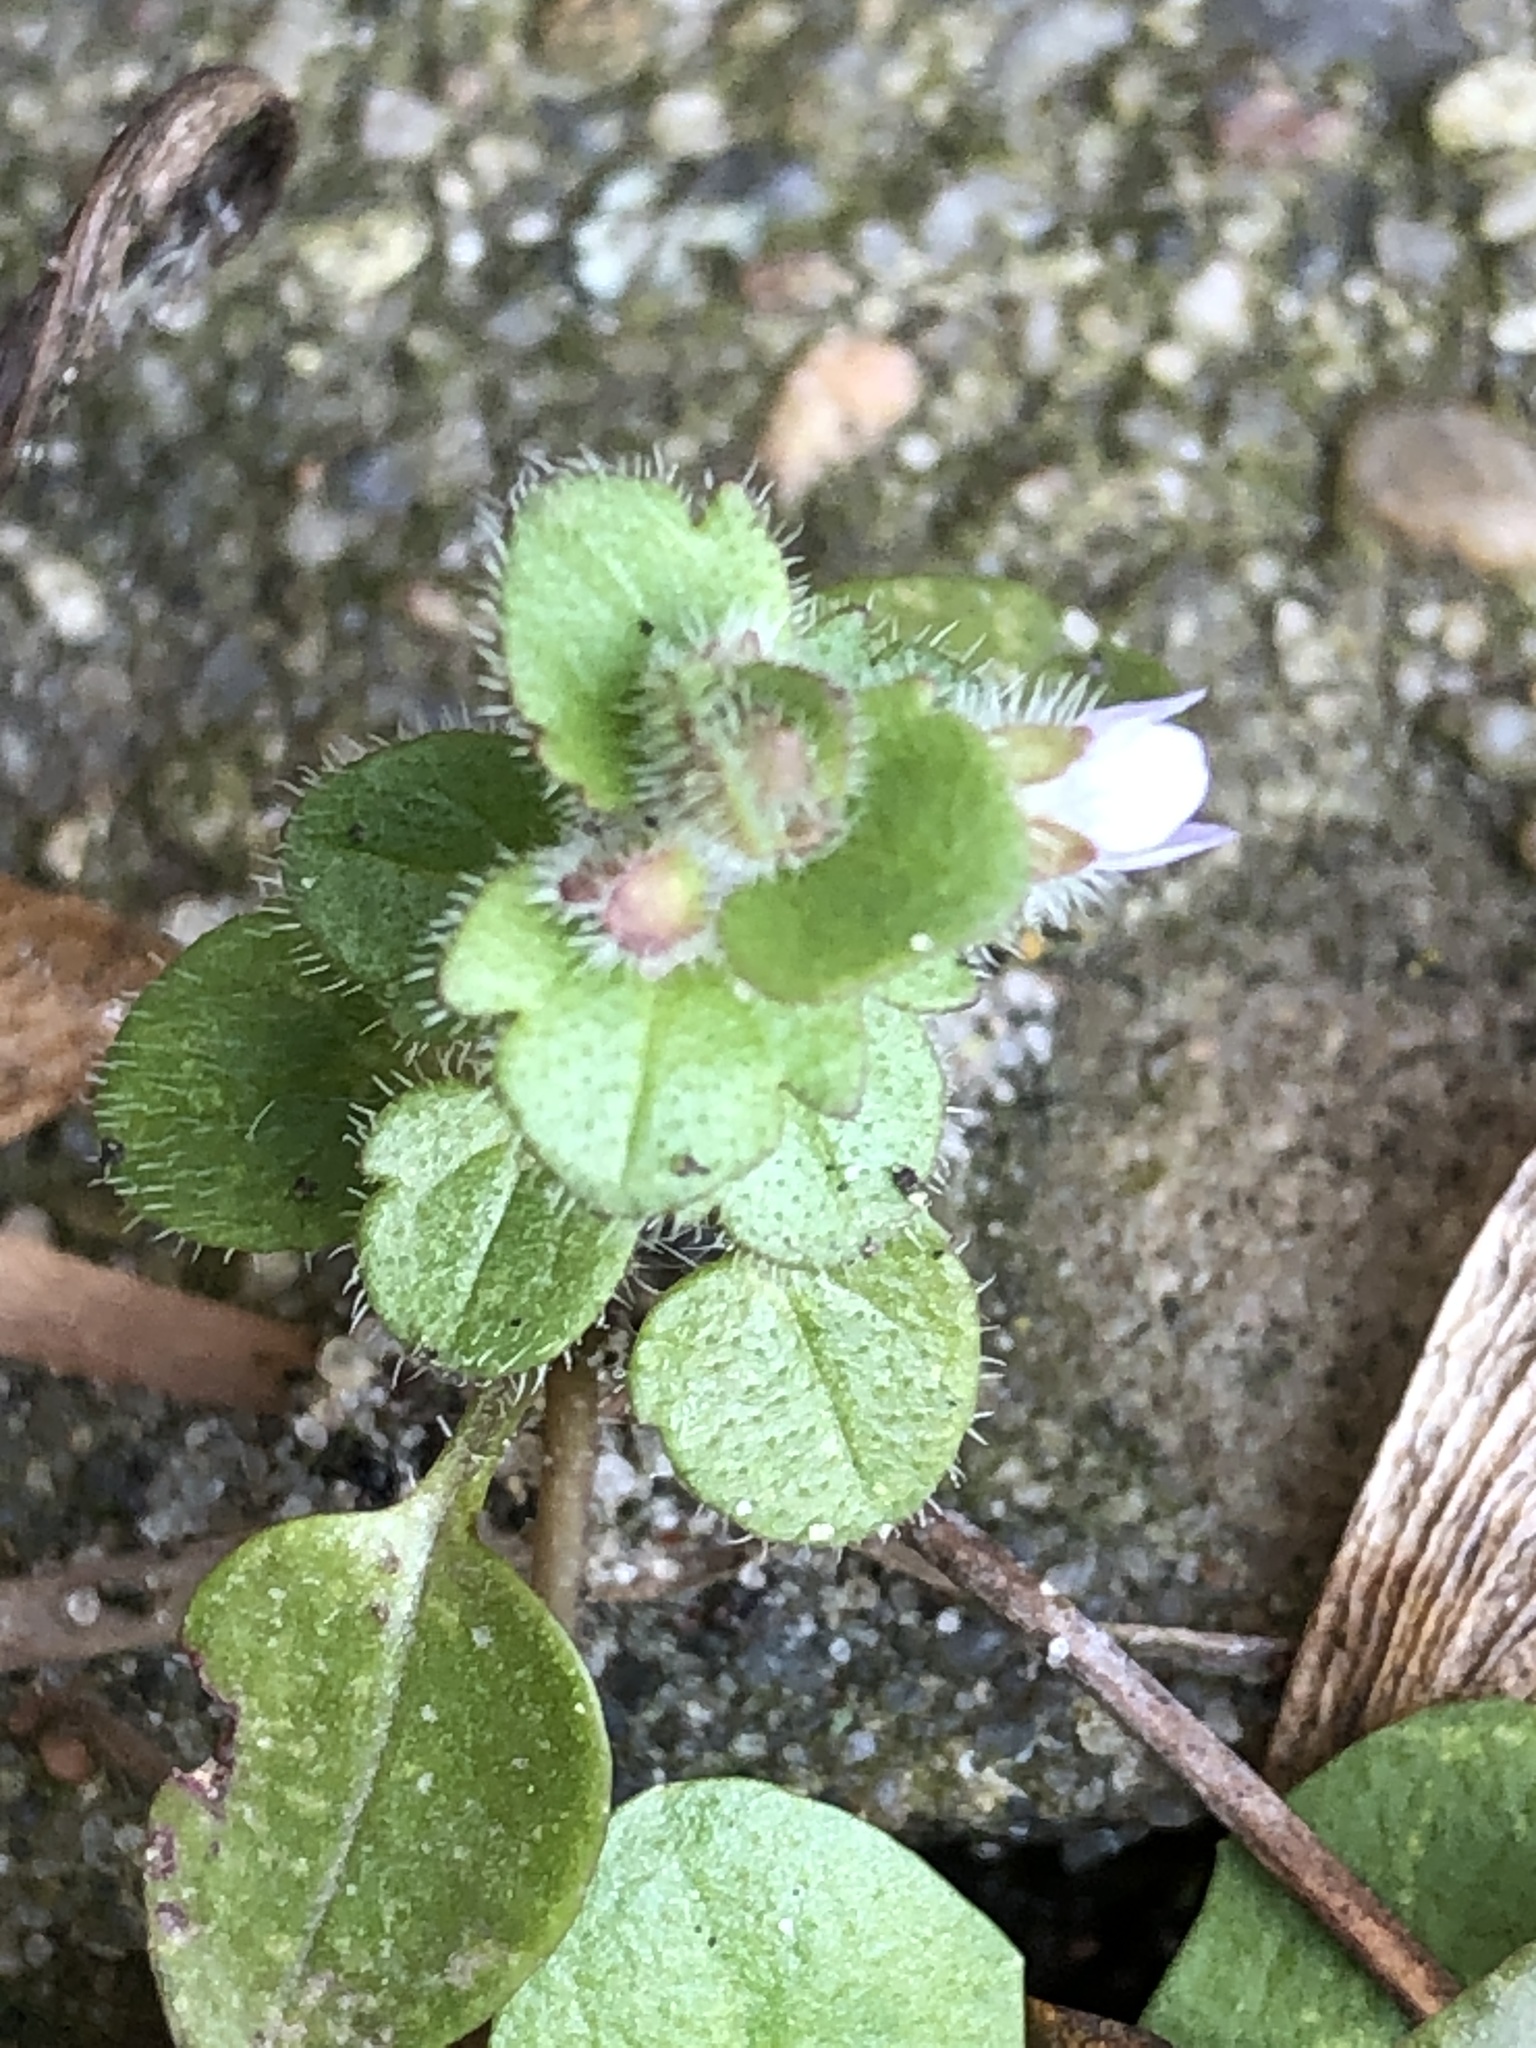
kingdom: Plantae
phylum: Tracheophyta
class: Magnoliopsida
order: Lamiales
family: Plantaginaceae
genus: Veronica
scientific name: Veronica hederifolia
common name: Ivy-leaved speedwell
